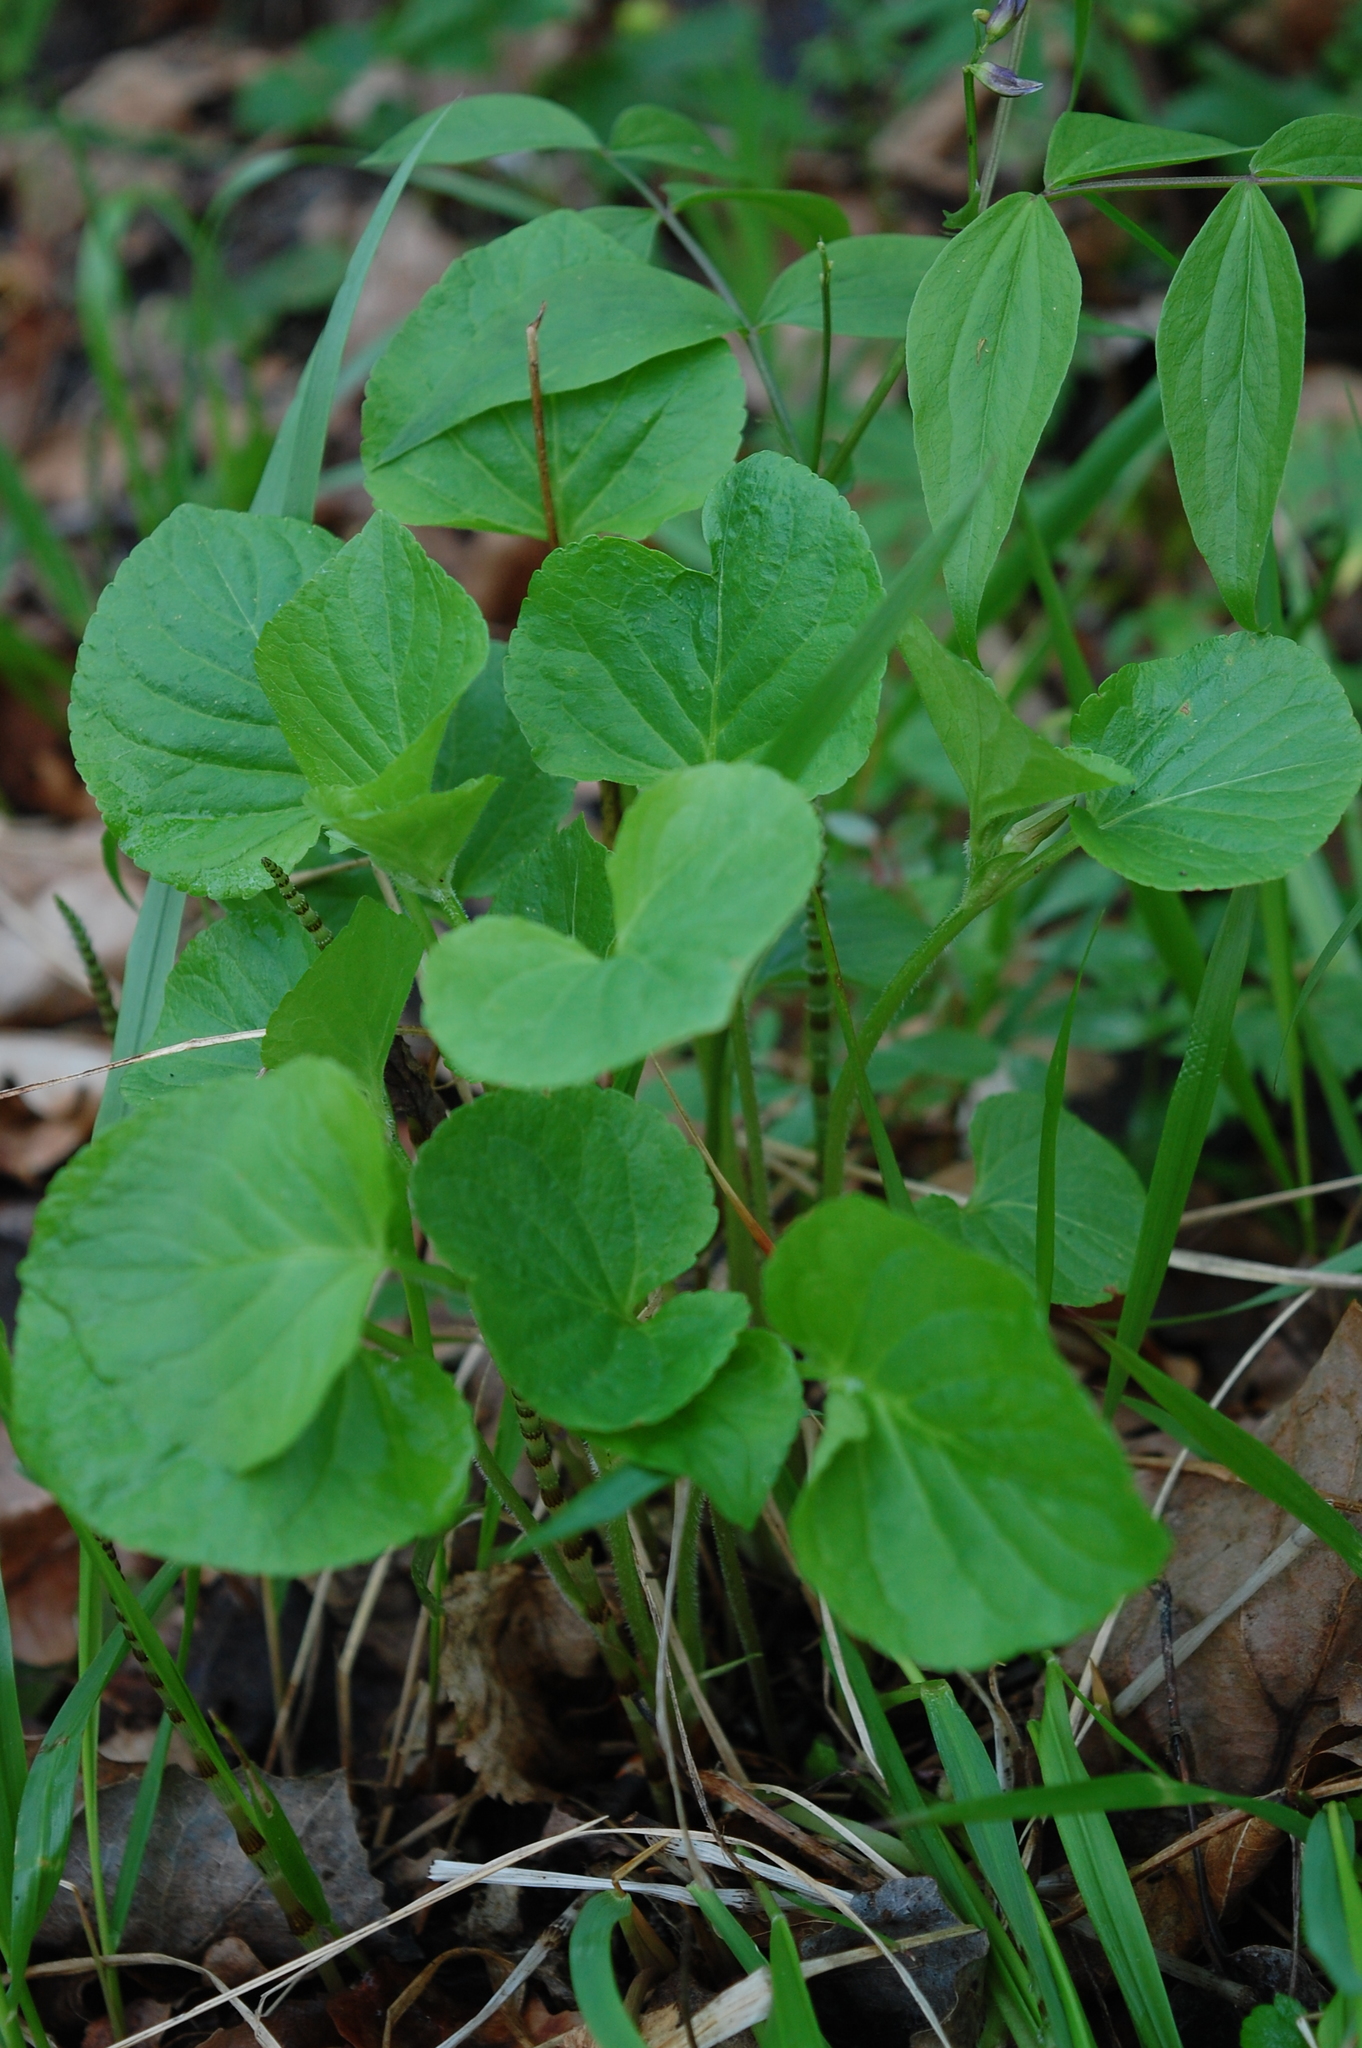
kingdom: Plantae
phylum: Tracheophyta
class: Magnoliopsida
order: Malpighiales
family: Violaceae
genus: Viola
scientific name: Viola mirabilis
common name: Wonder violet
